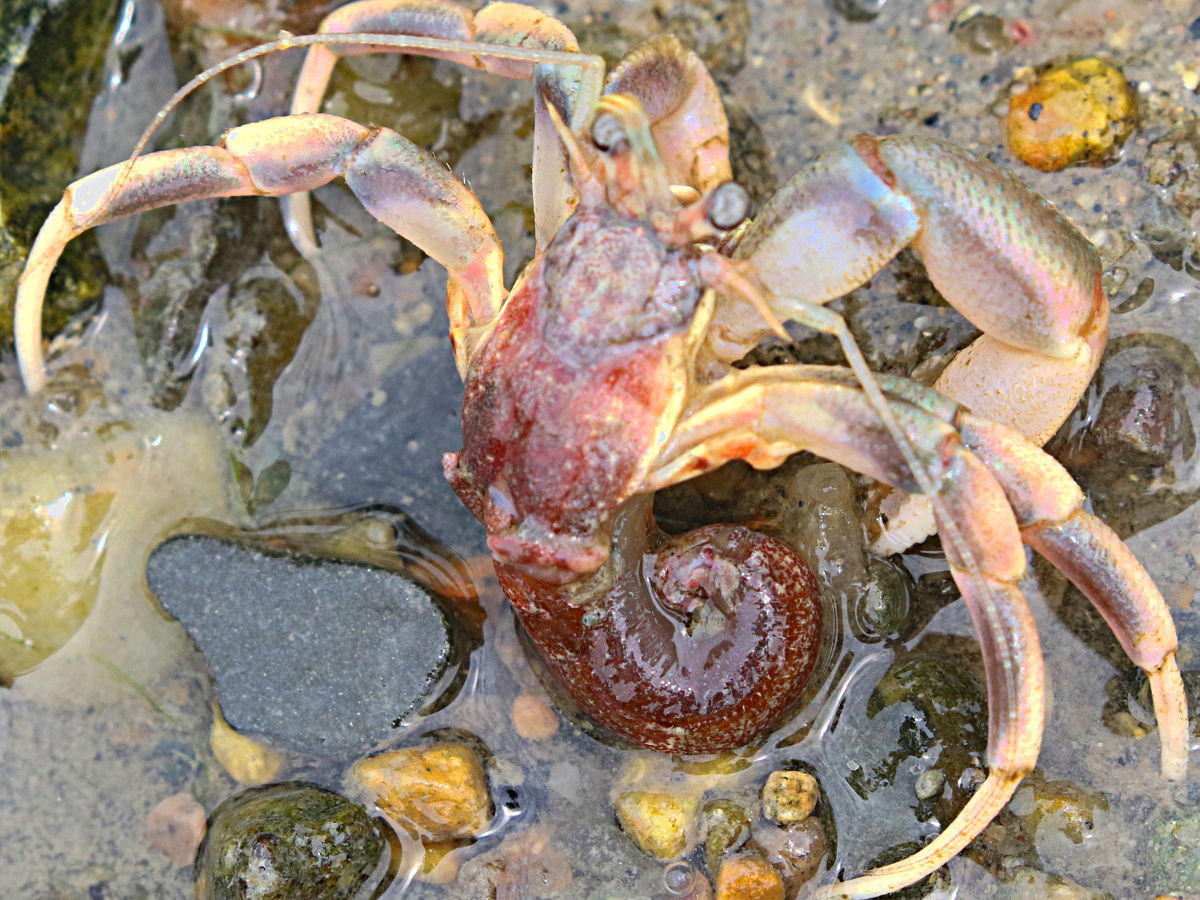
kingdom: Animalia
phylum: Arthropoda
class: Malacostraca
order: Decapoda
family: Paguridae
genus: Pagurus
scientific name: Pagurus longicarpus
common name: Long-armed hermit crab
